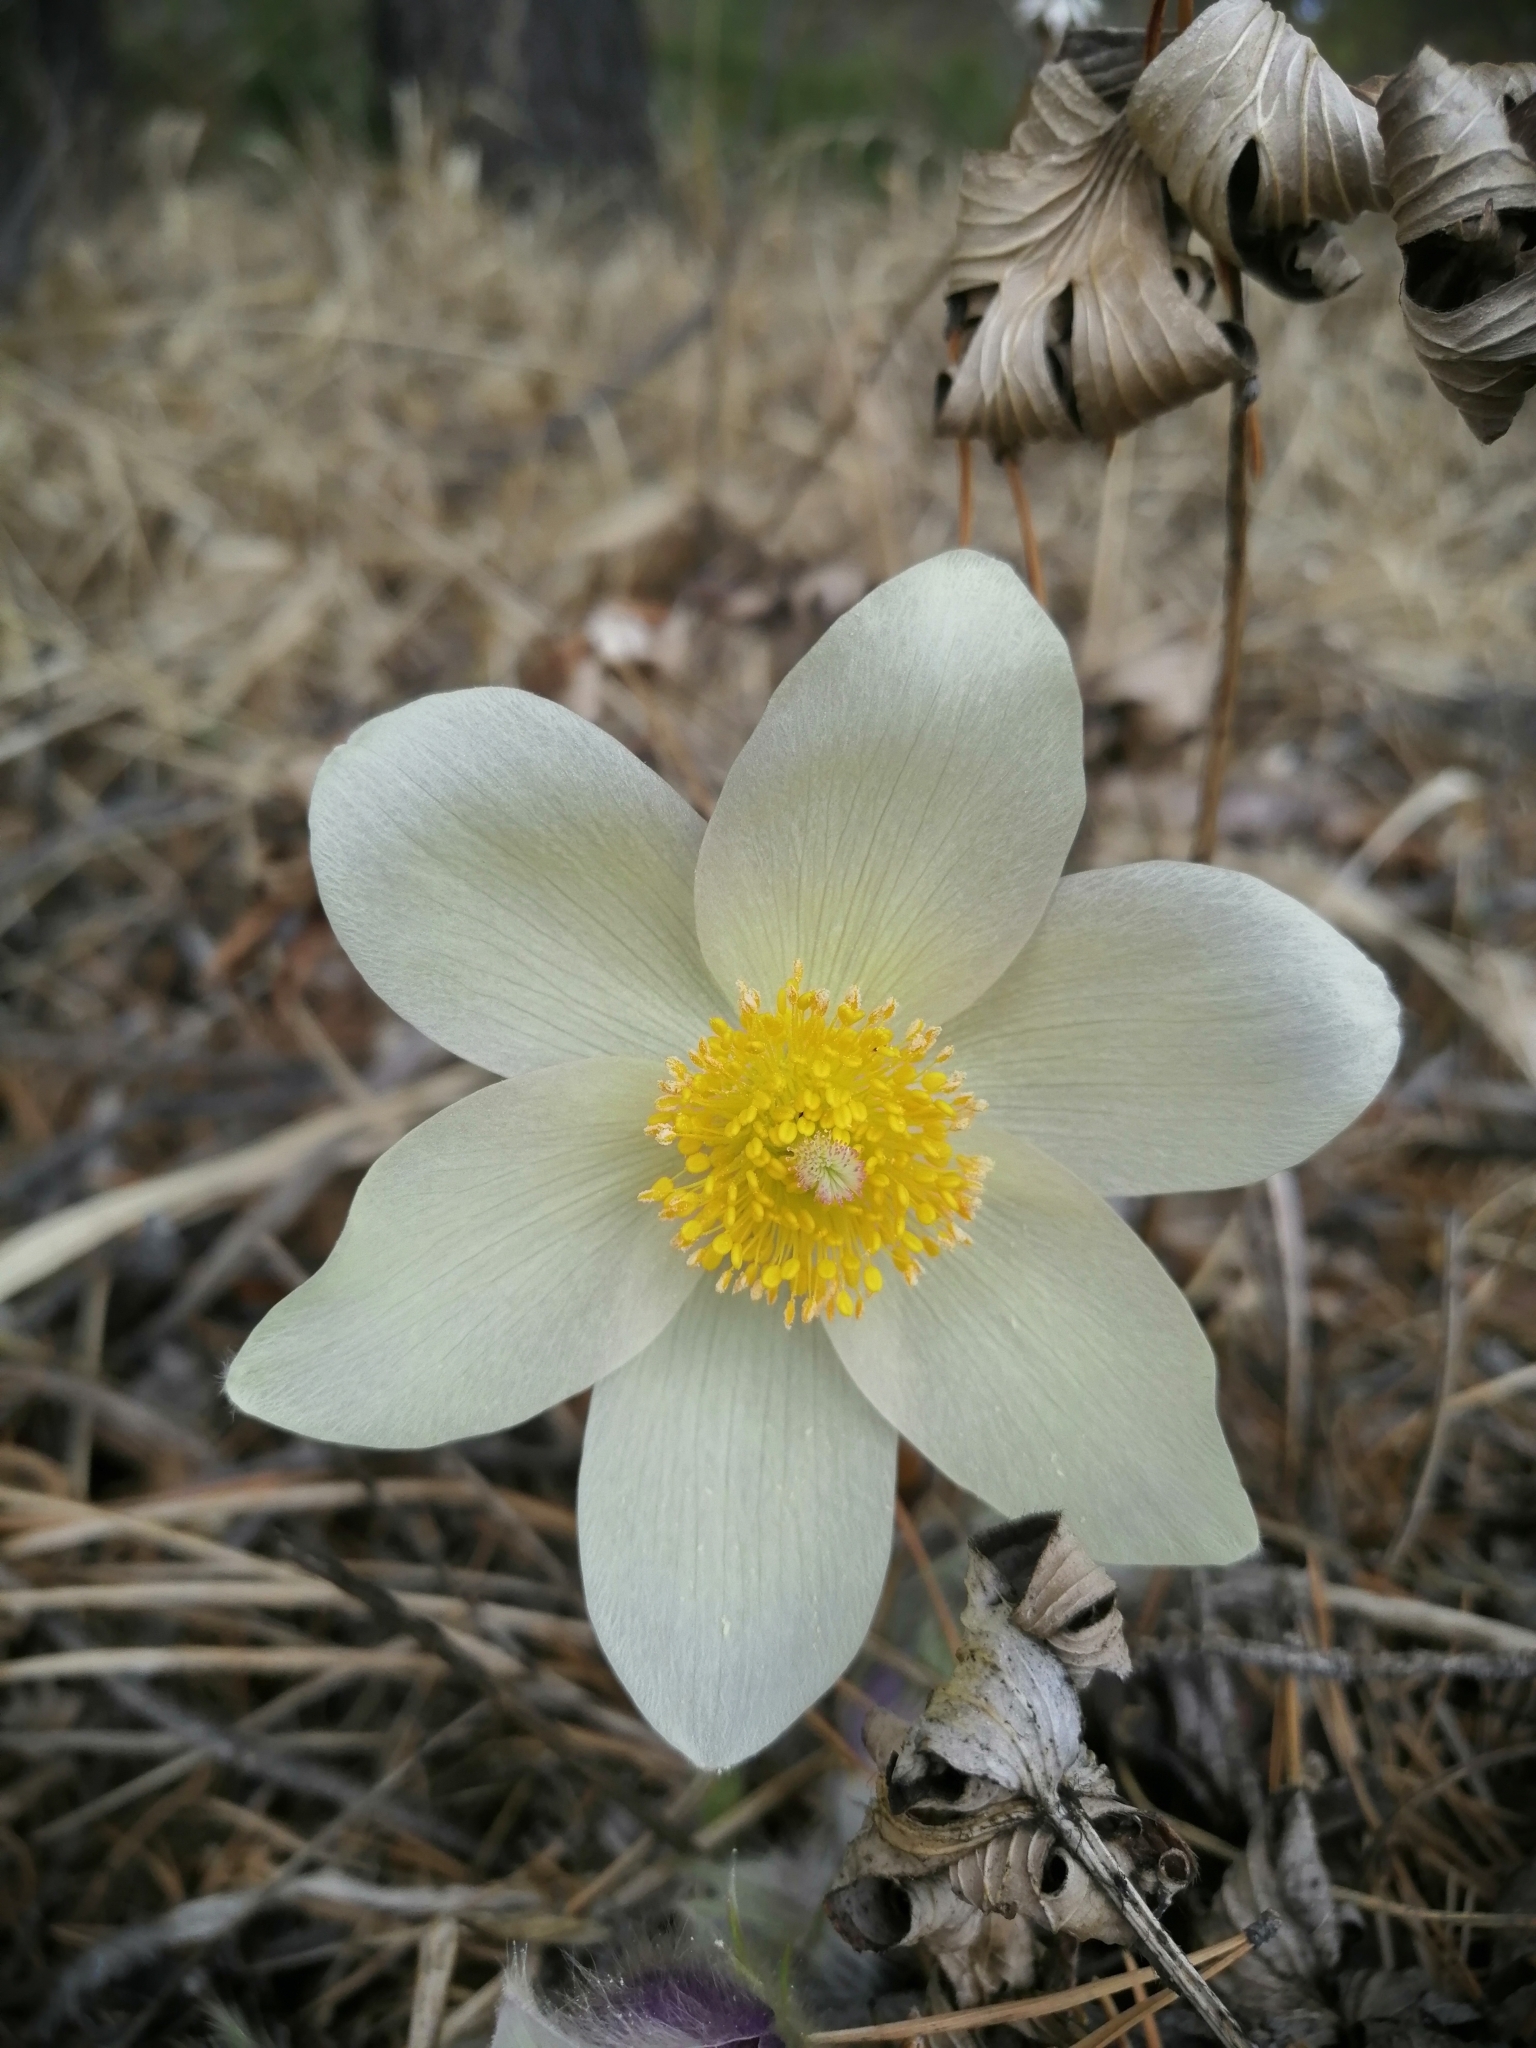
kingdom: Plantae
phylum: Tracheophyta
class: Magnoliopsida
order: Ranunculales
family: Ranunculaceae
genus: Pulsatilla
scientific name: Pulsatilla patens
